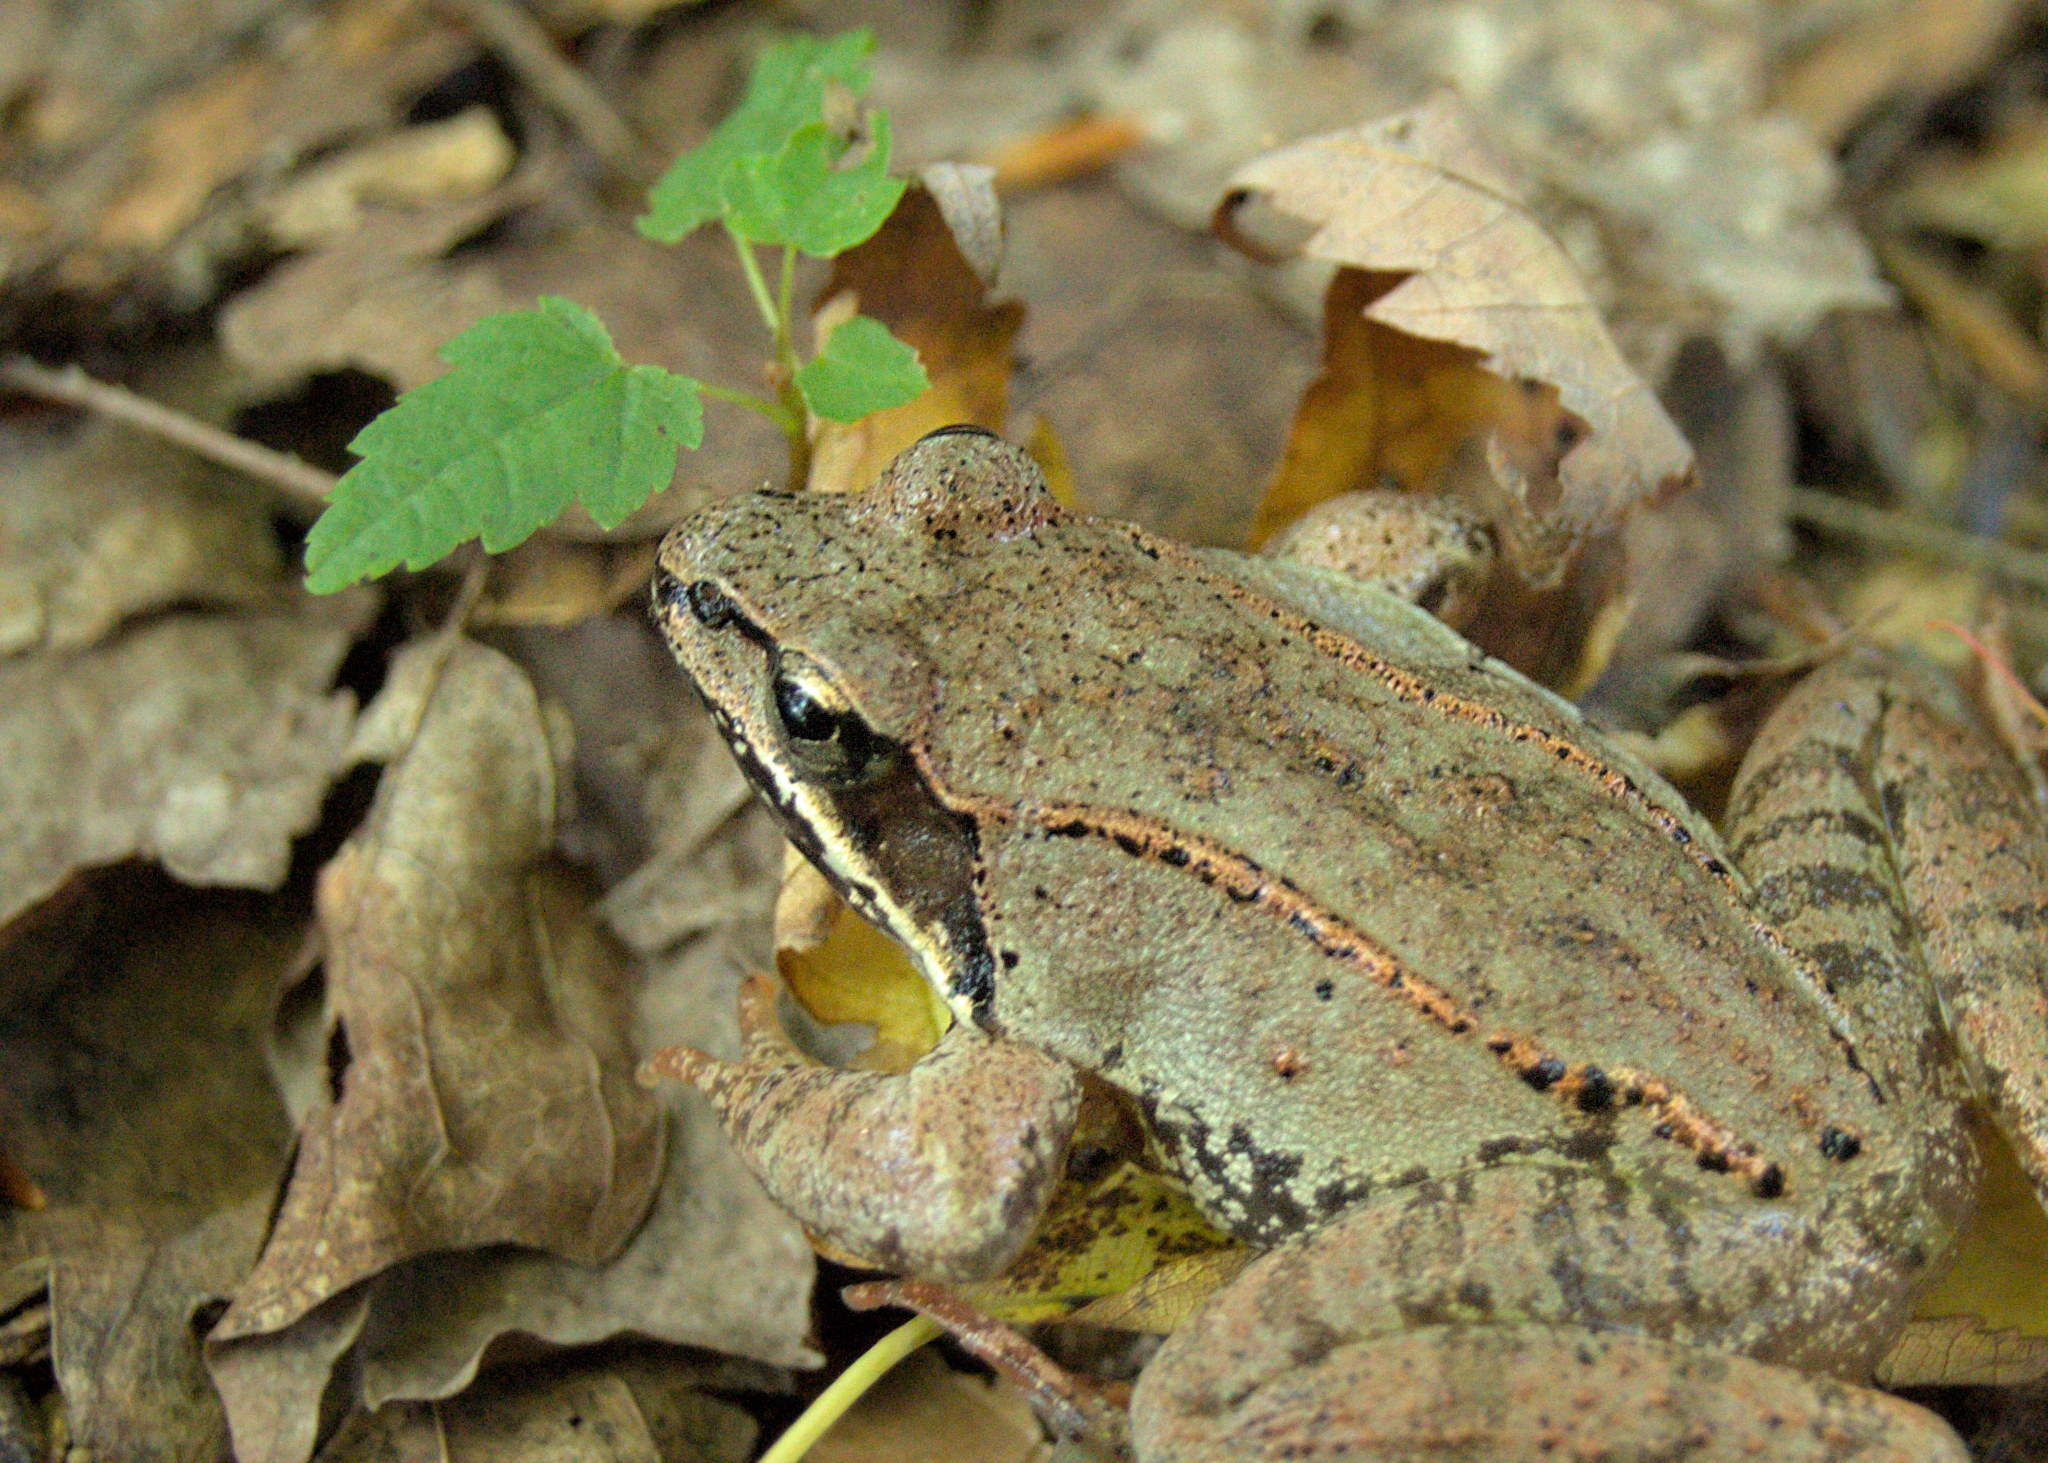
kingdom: Animalia
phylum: Chordata
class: Amphibia
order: Anura
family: Ranidae
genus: Lithobates
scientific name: Lithobates sylvaticus
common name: Wood frog
